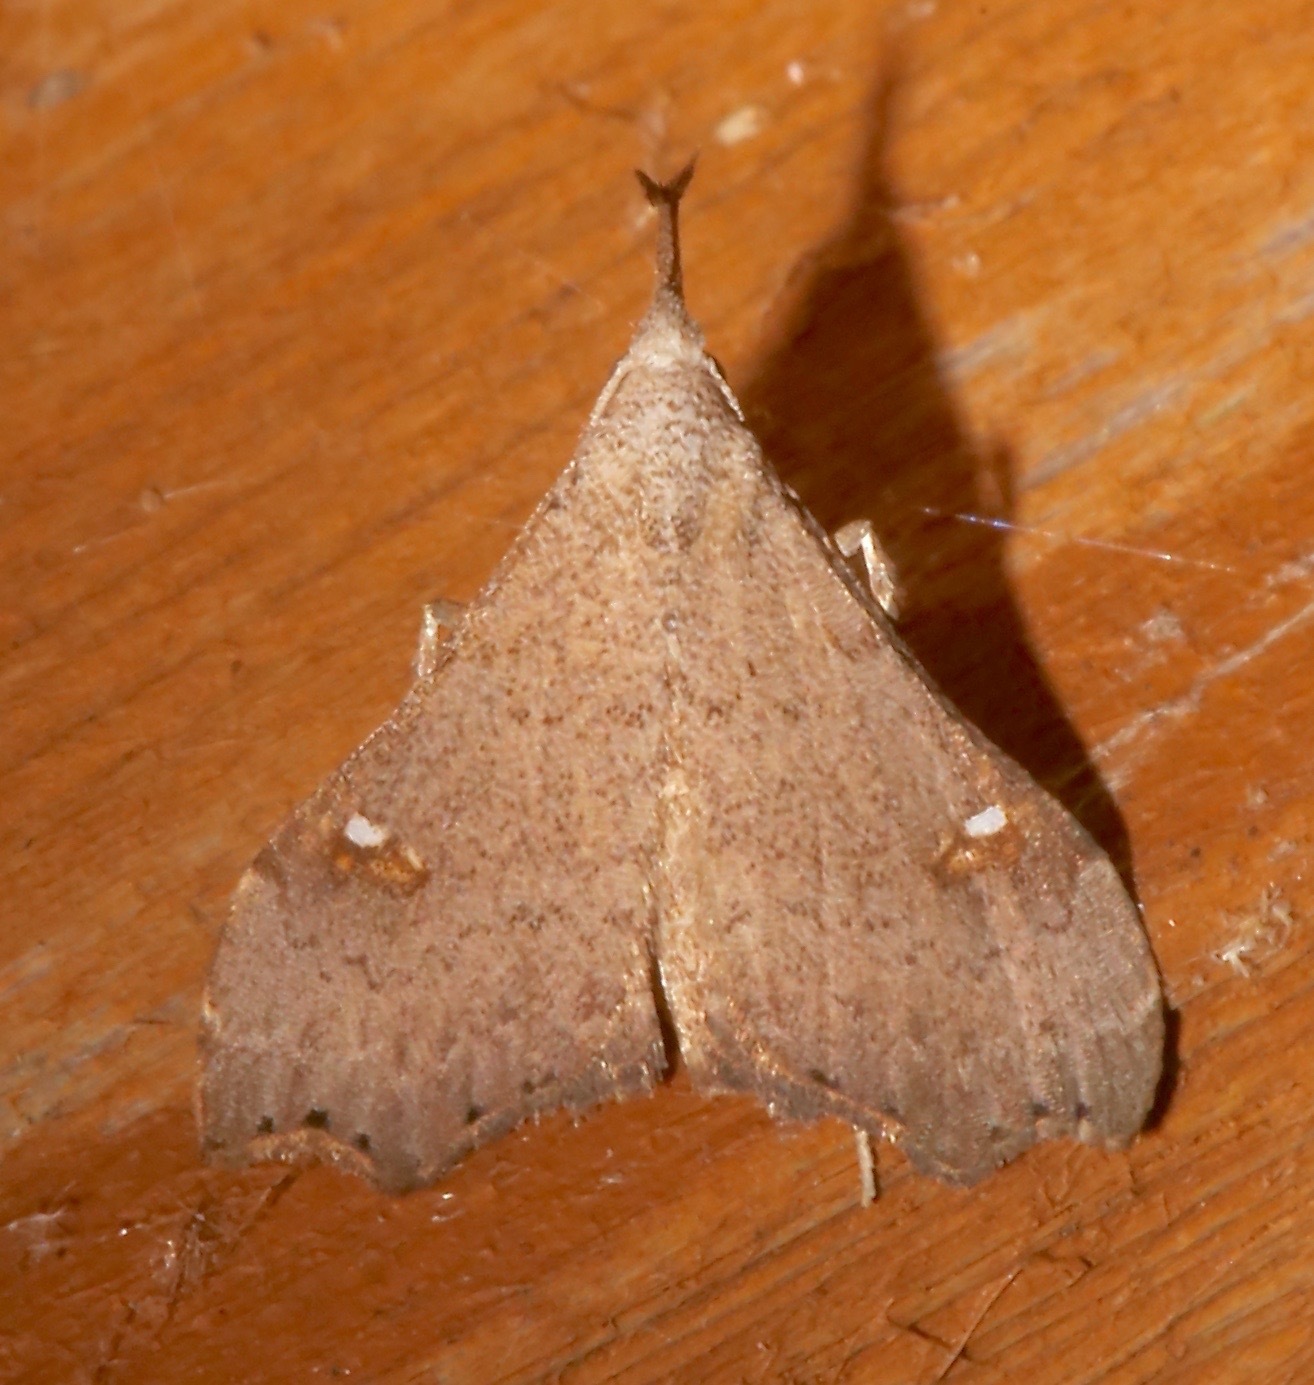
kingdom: Animalia
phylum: Arthropoda
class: Insecta
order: Lepidoptera
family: Erebidae
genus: Redectis
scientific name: Redectis vitrea
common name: White-spotted redectis
